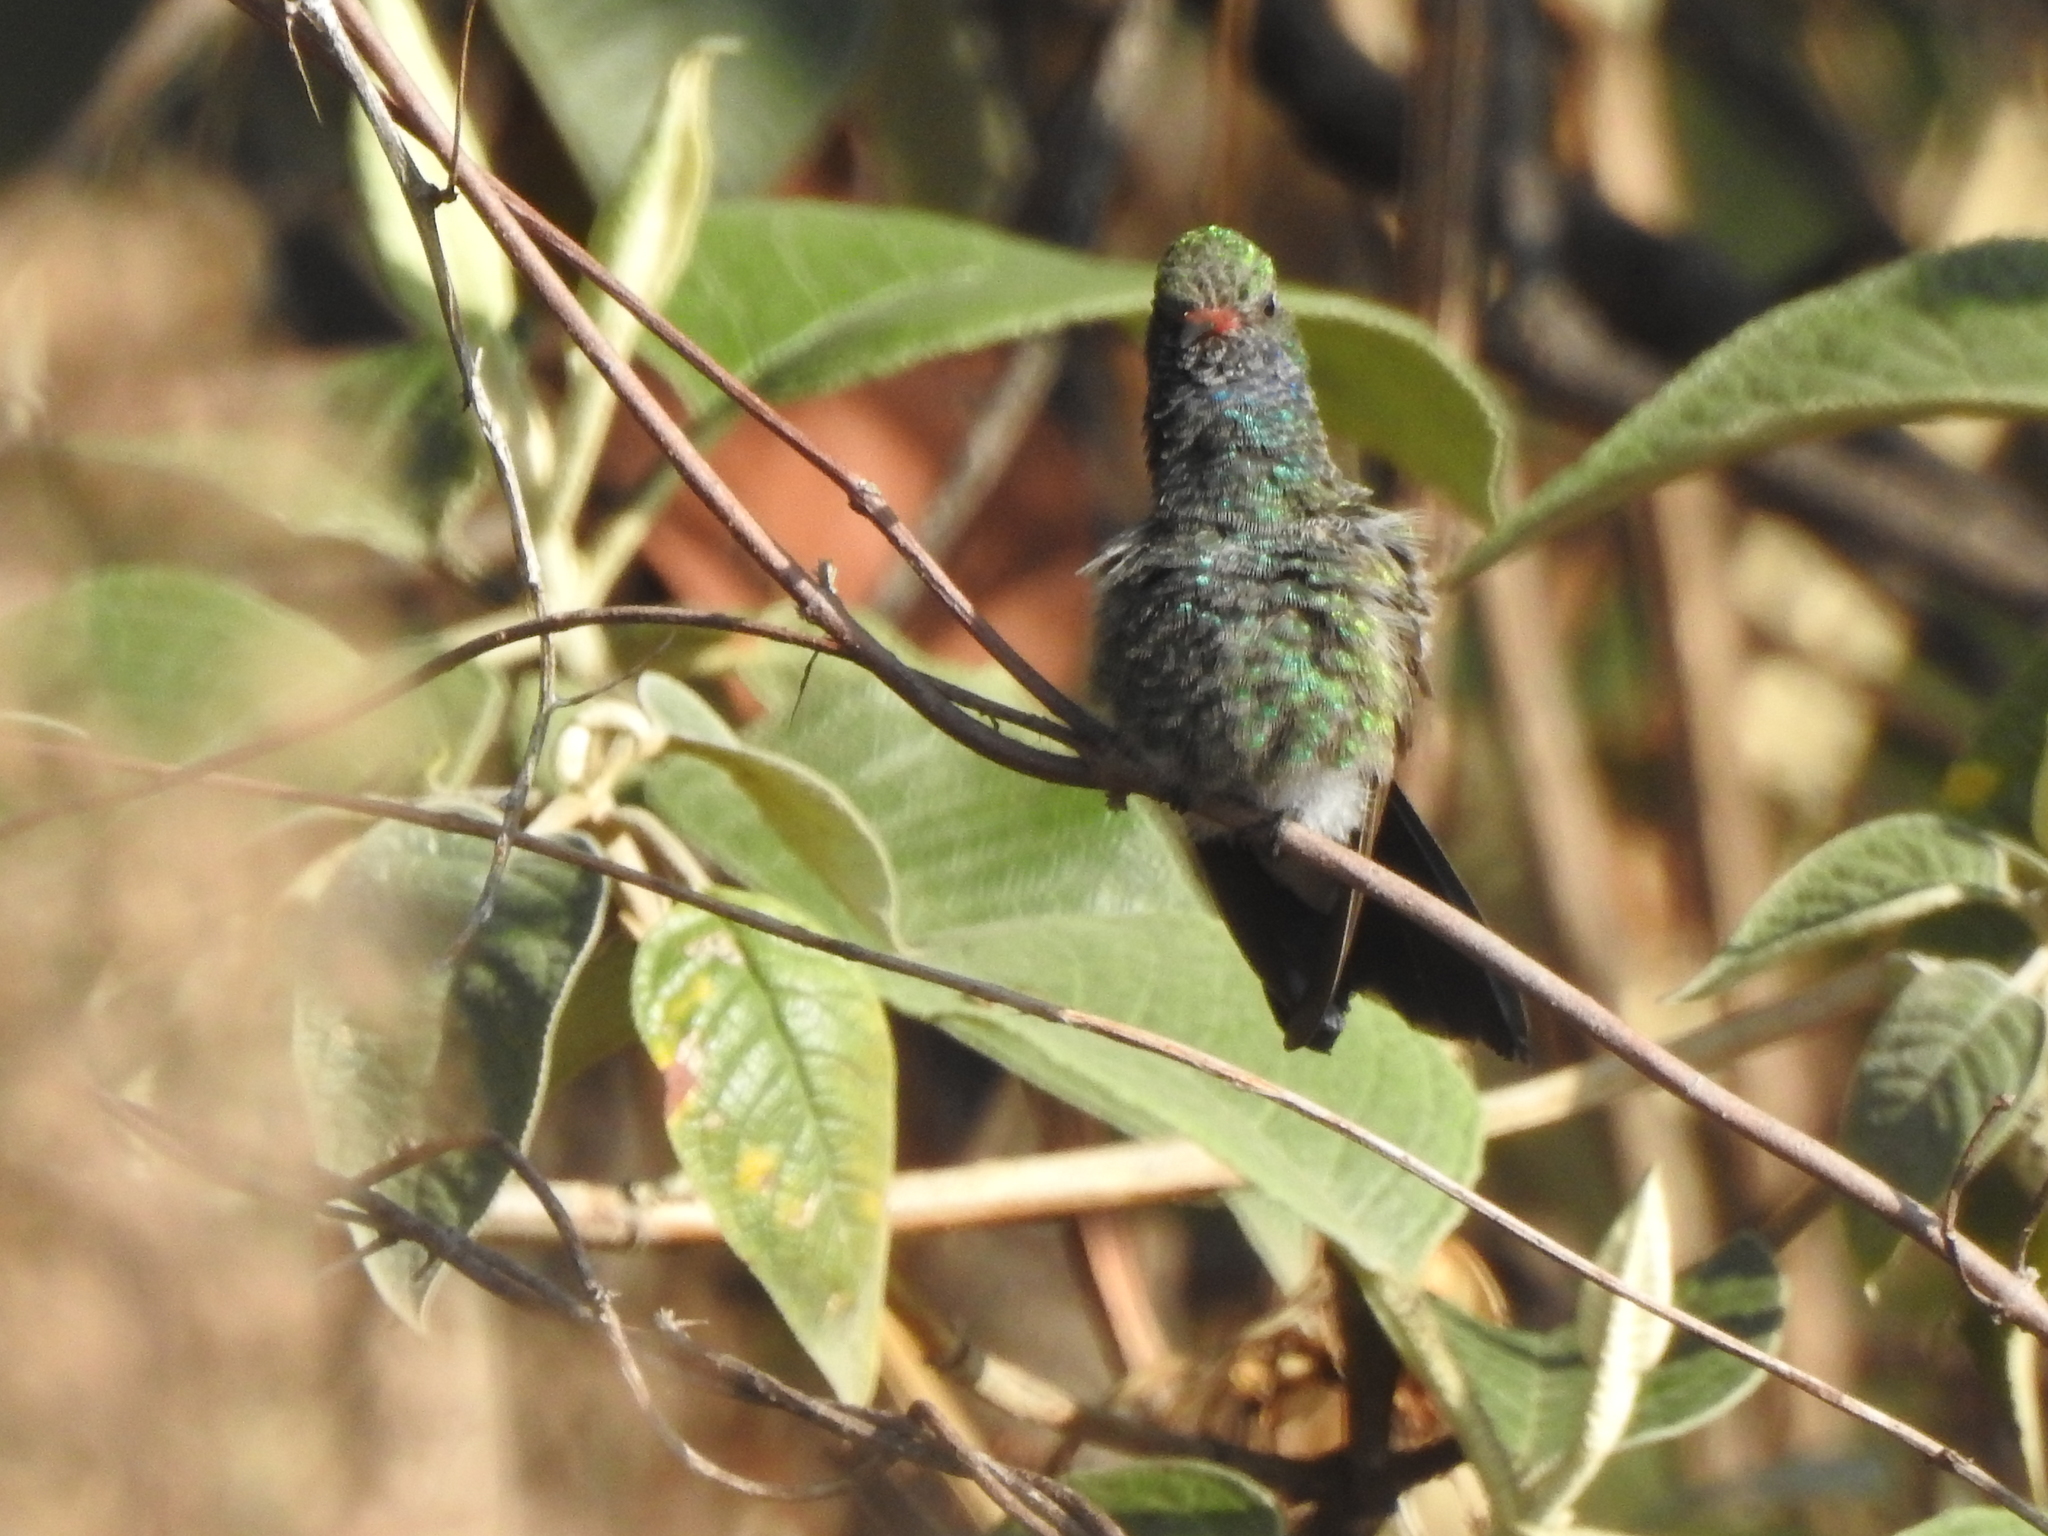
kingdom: Animalia
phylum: Chordata
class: Aves
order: Apodiformes
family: Trochilidae
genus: Cynanthus
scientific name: Cynanthus latirostris
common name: Broad-billed hummingbird
